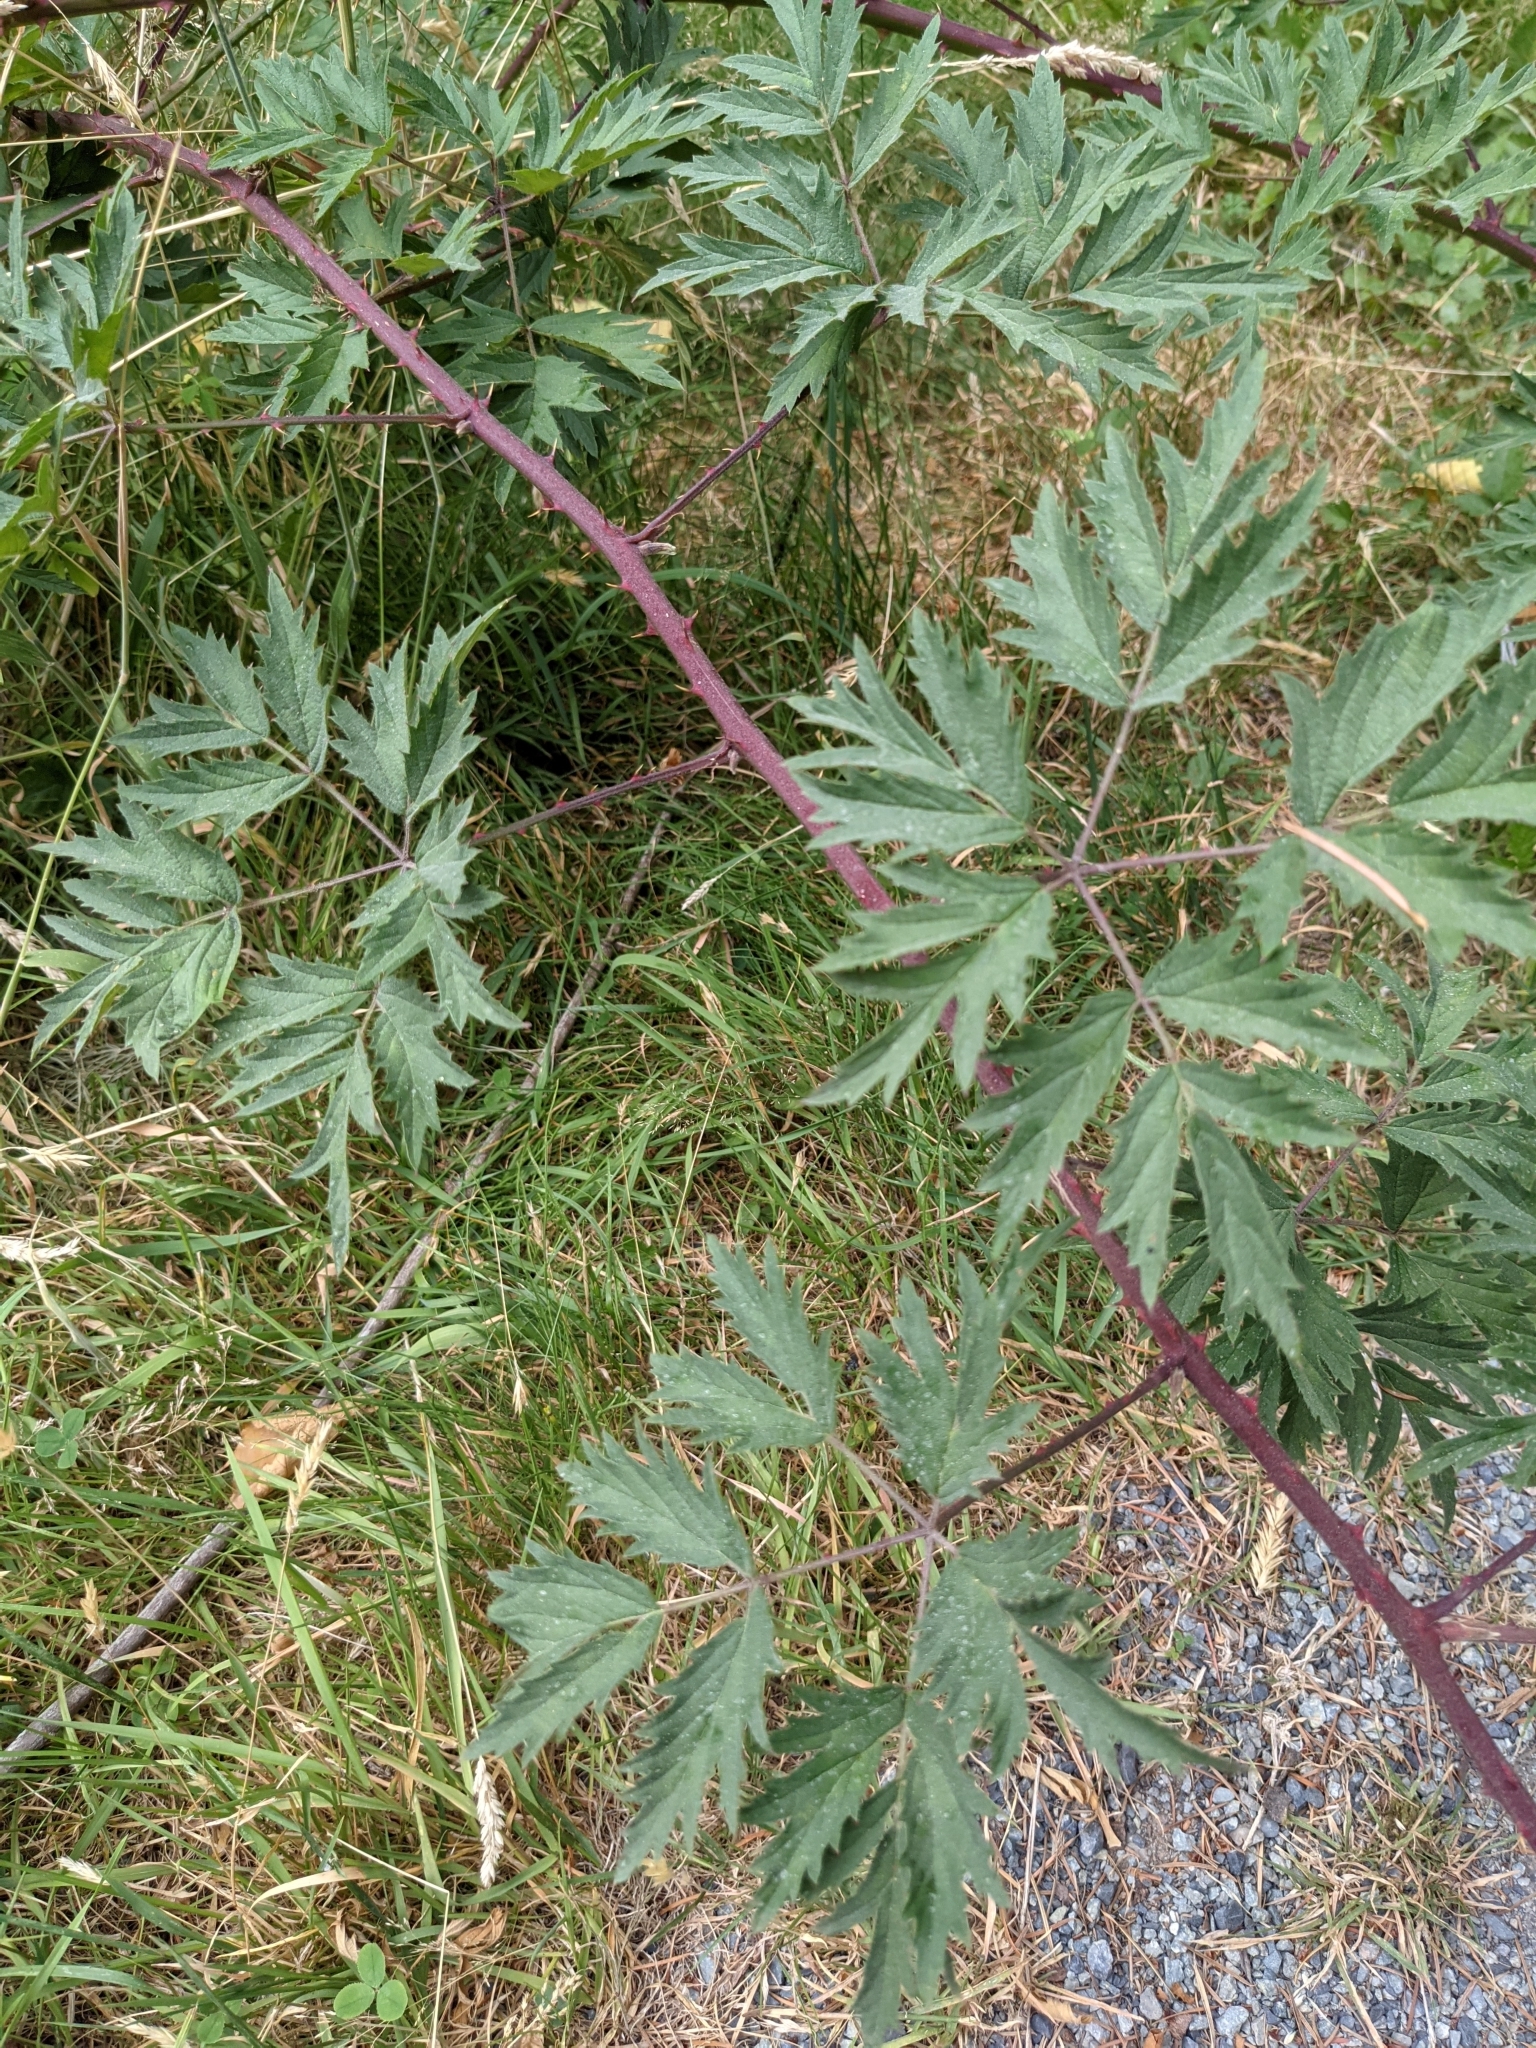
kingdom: Plantae
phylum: Tracheophyta
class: Magnoliopsida
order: Rosales
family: Rosaceae
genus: Rubus
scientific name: Rubus laciniatus
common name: Evergreen blackberry
